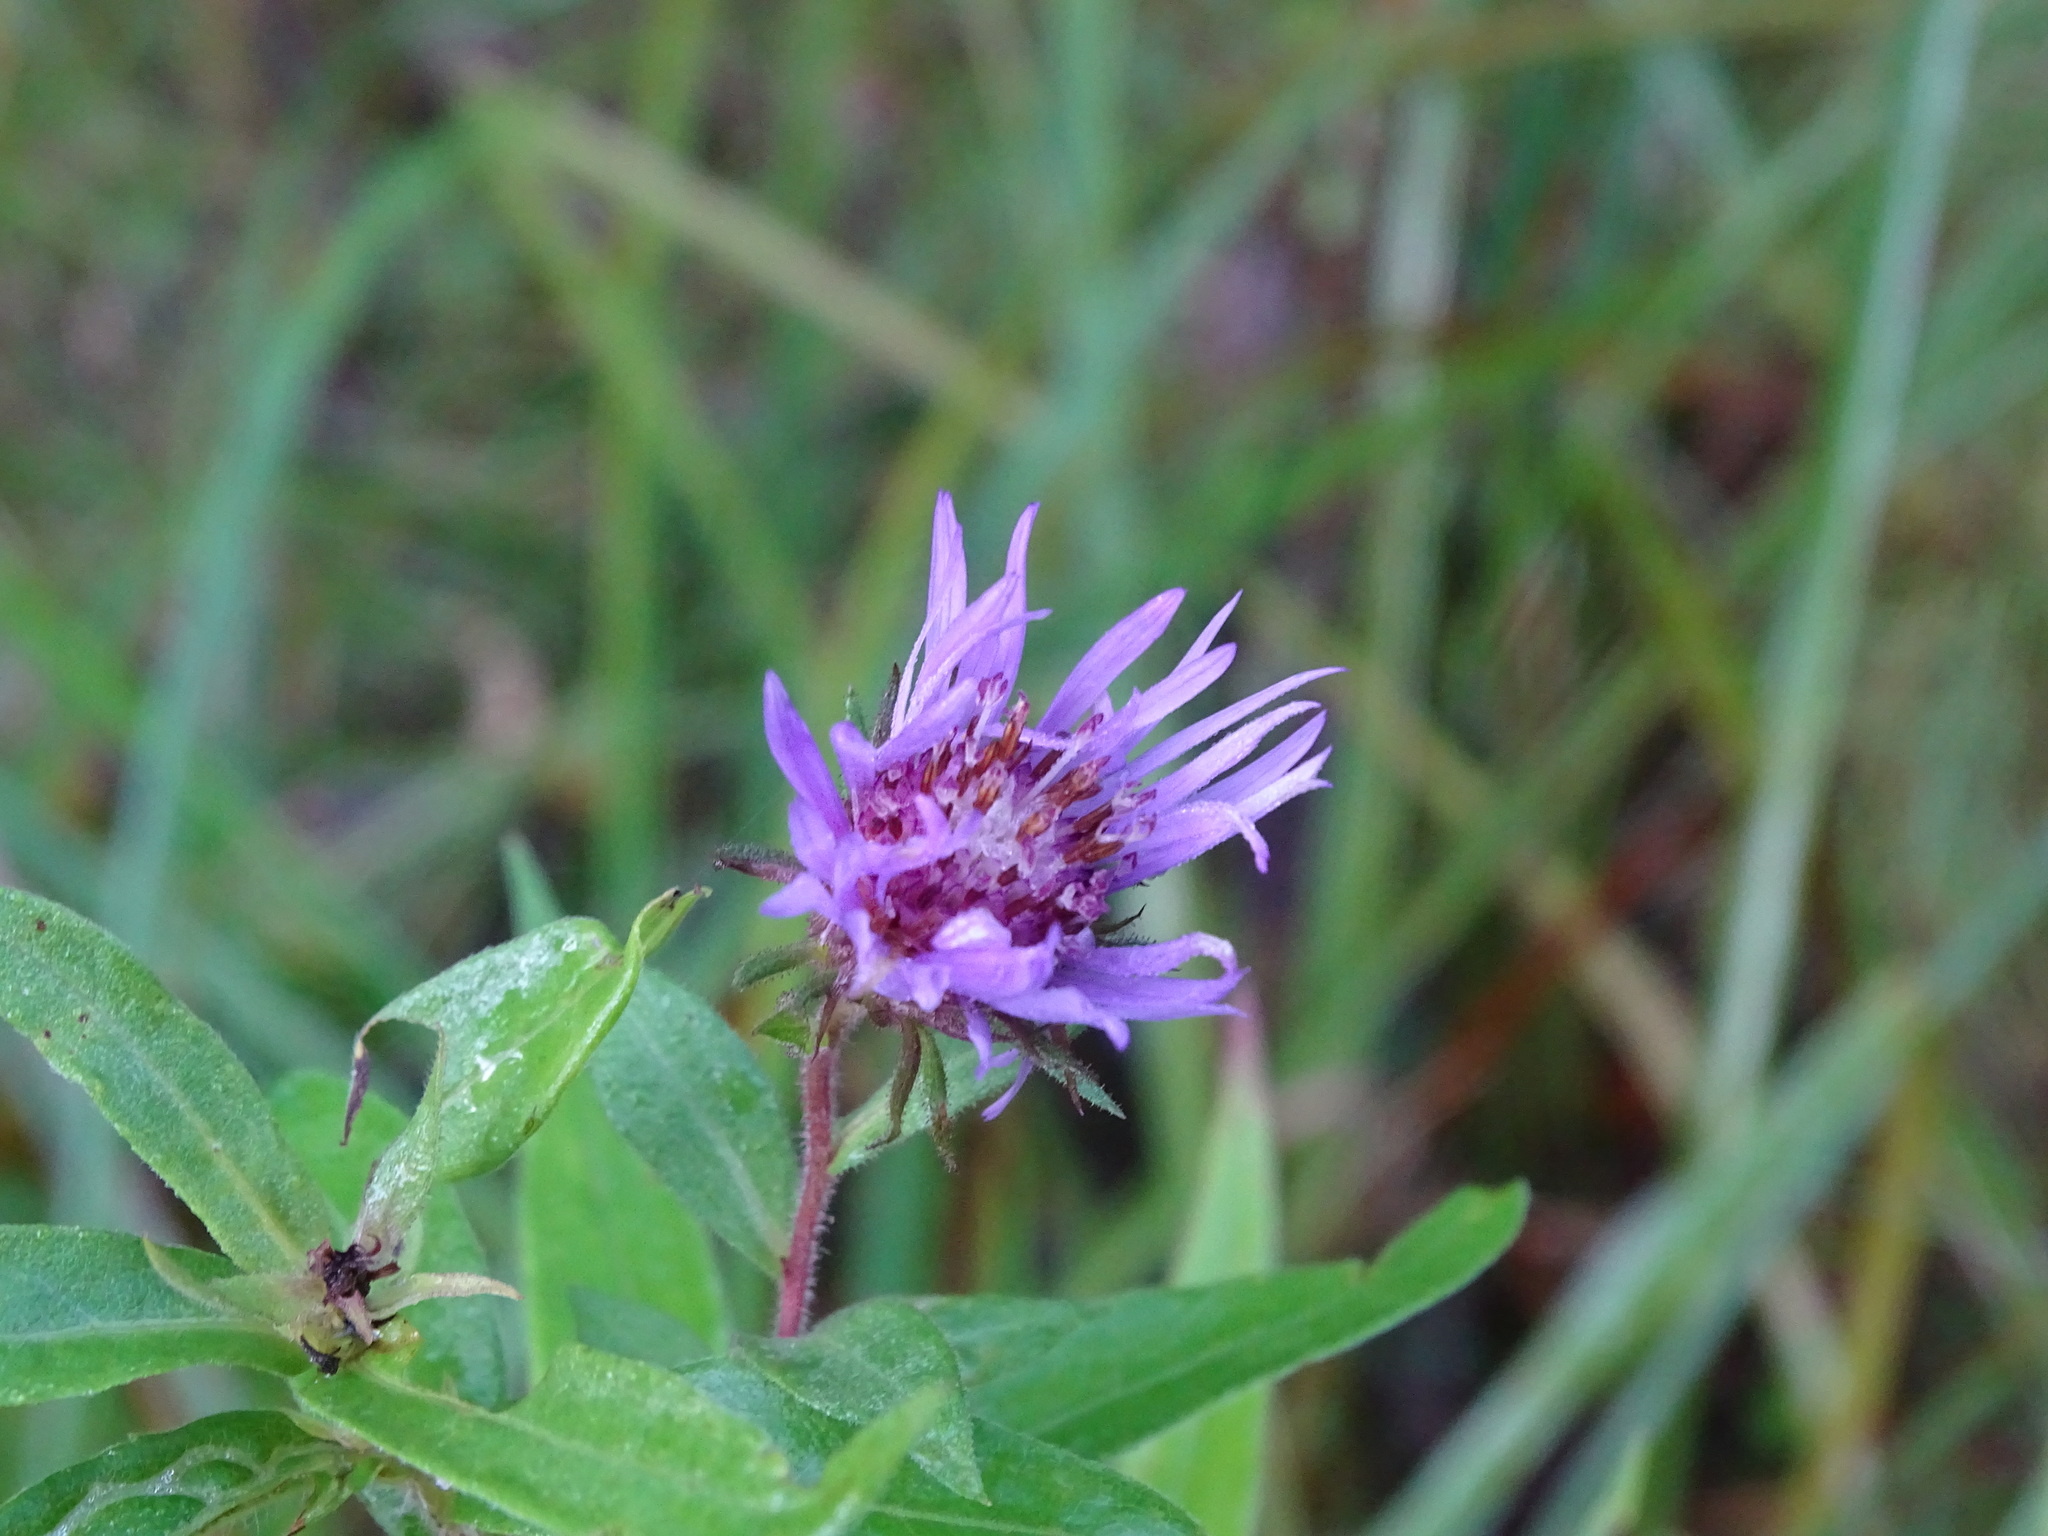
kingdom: Plantae
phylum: Tracheophyta
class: Magnoliopsida
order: Asterales
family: Asteraceae
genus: Canadanthus
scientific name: Canadanthus modestus
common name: Great northern aster
